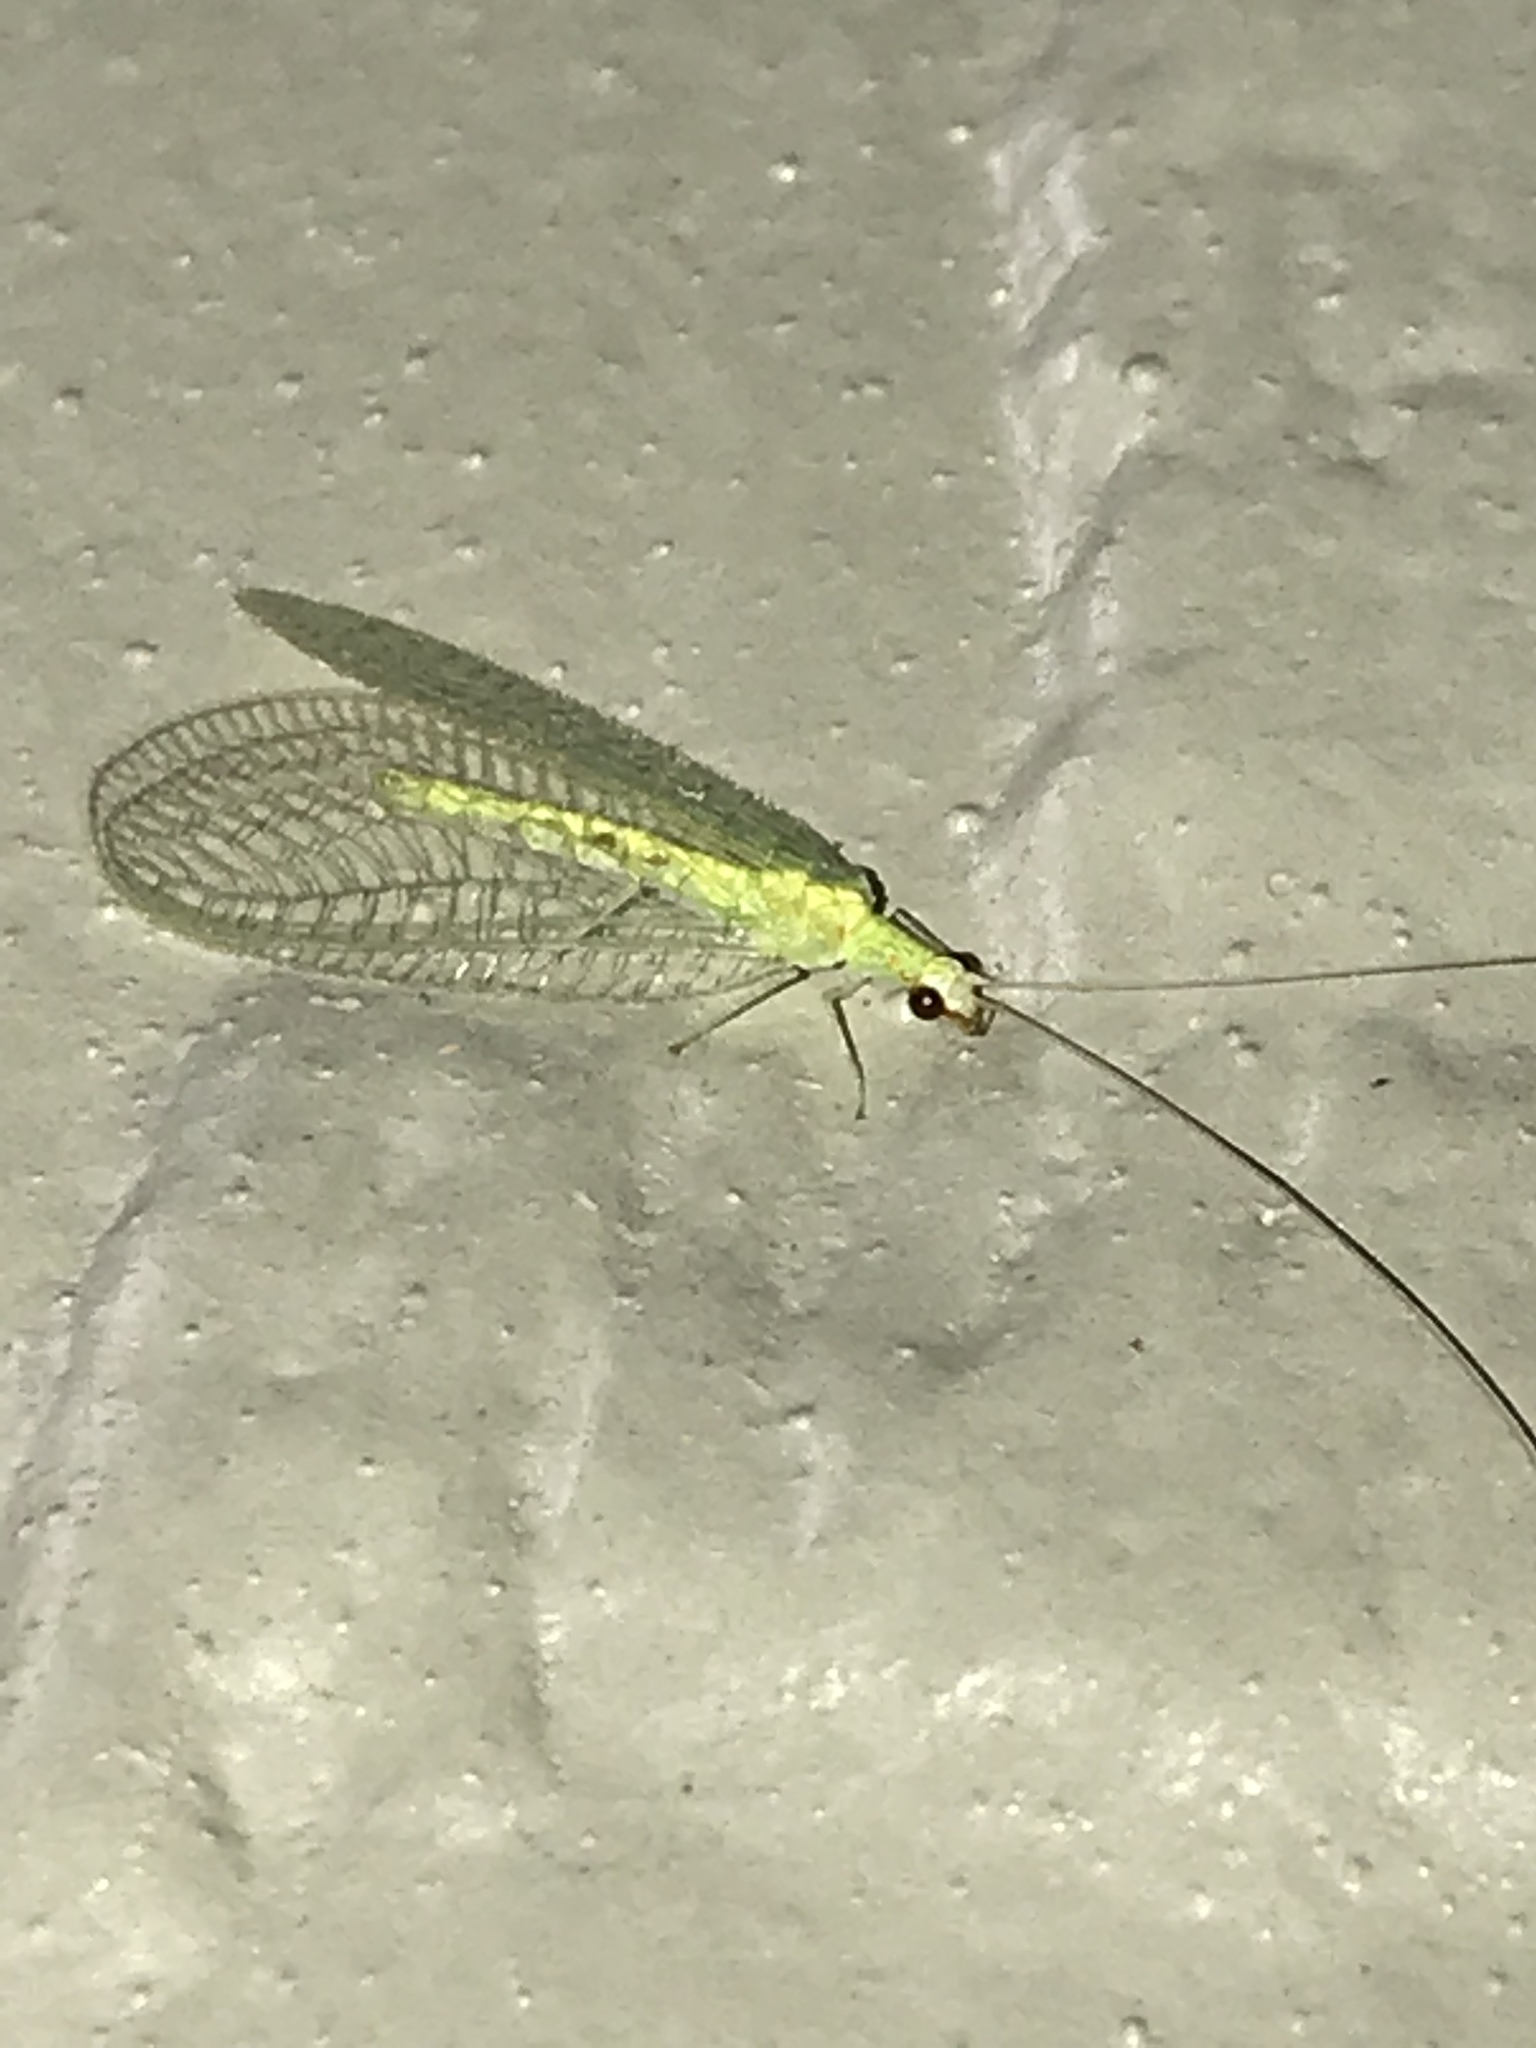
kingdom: Animalia
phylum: Arthropoda
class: Insecta
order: Neuroptera
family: Chrysopidae
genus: Chrysopa
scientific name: Chrysopa quadripunctata
